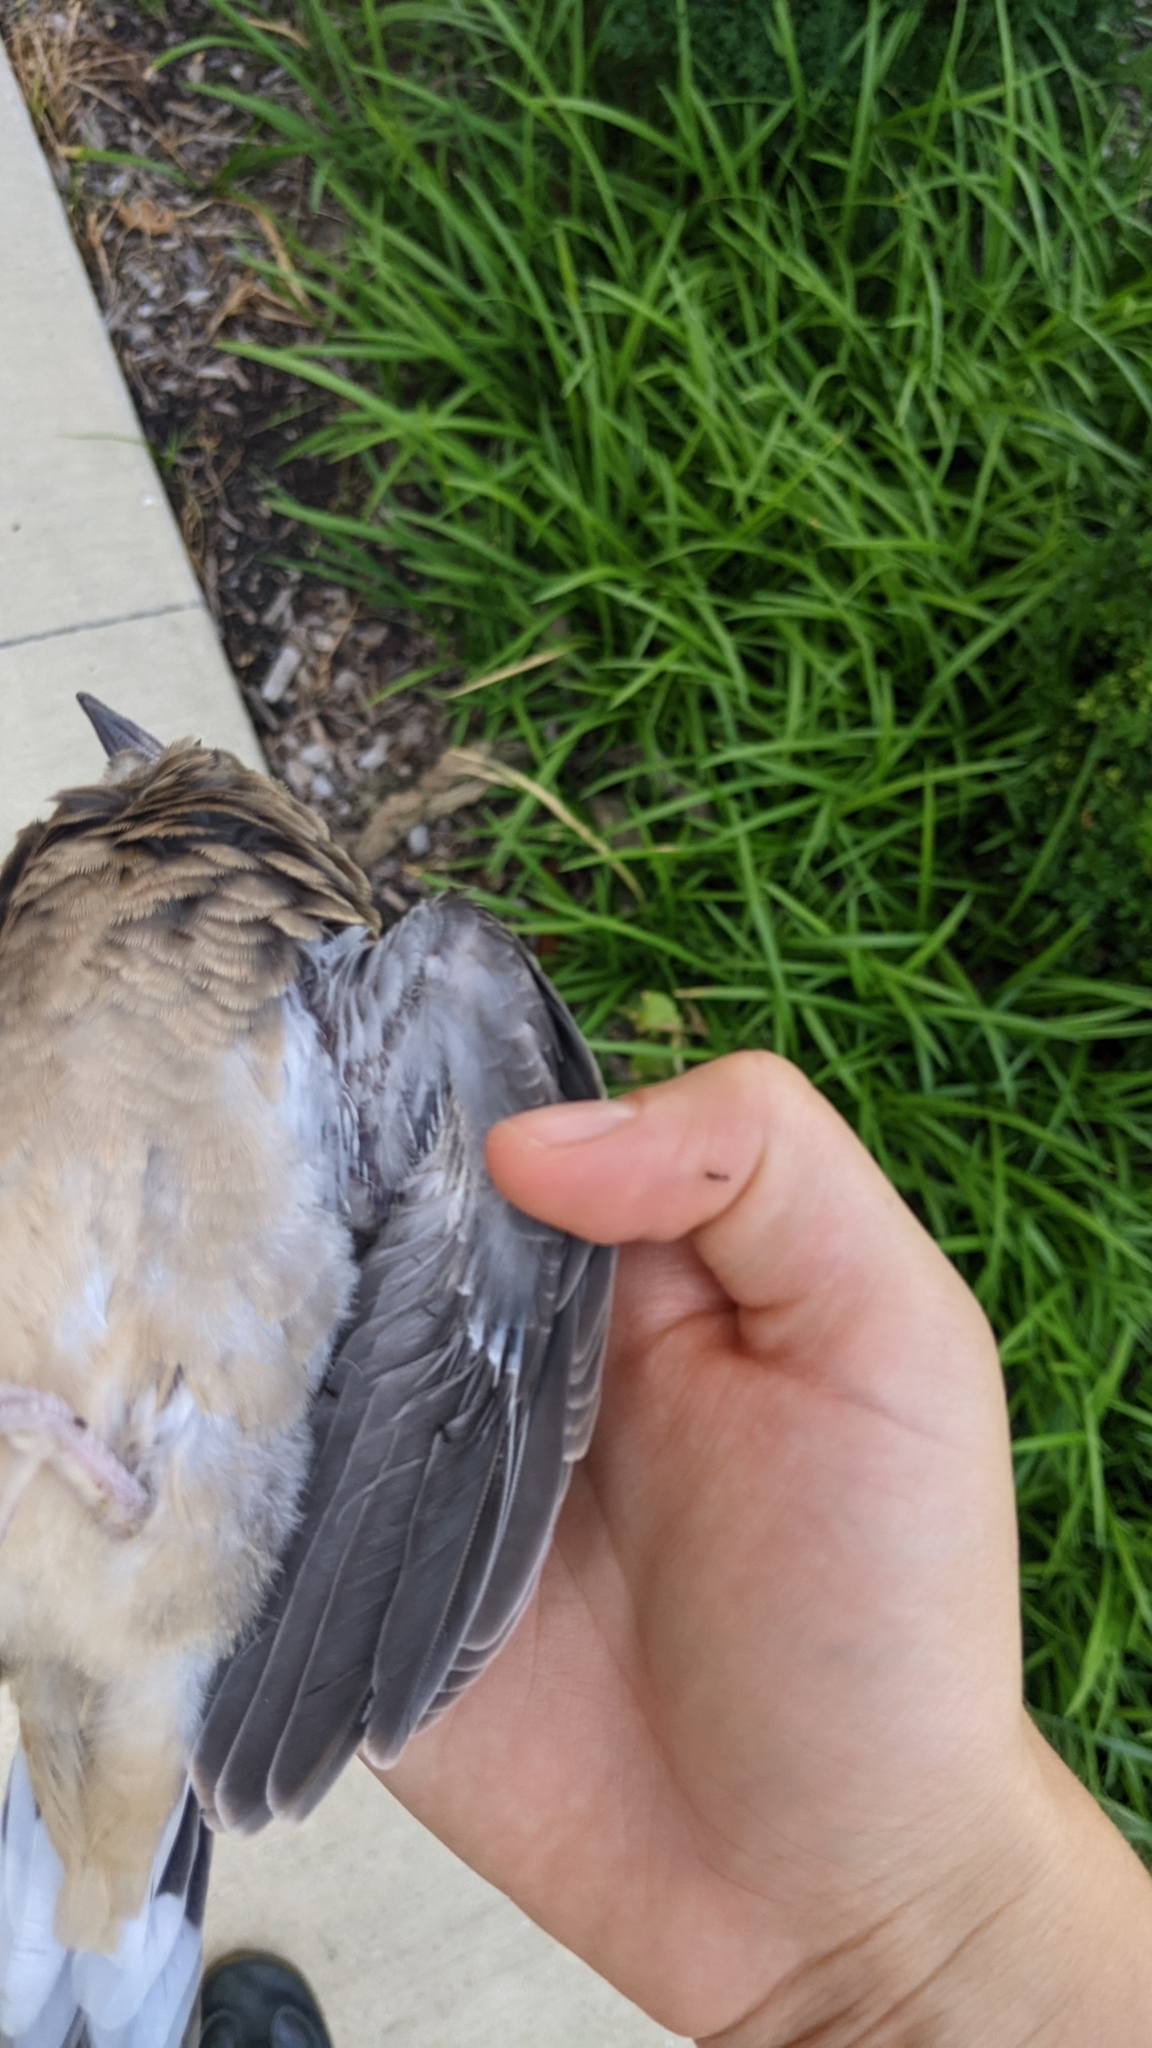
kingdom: Animalia
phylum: Chordata
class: Aves
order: Columbiformes
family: Columbidae
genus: Zenaida
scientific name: Zenaida macroura
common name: Mourning dove
